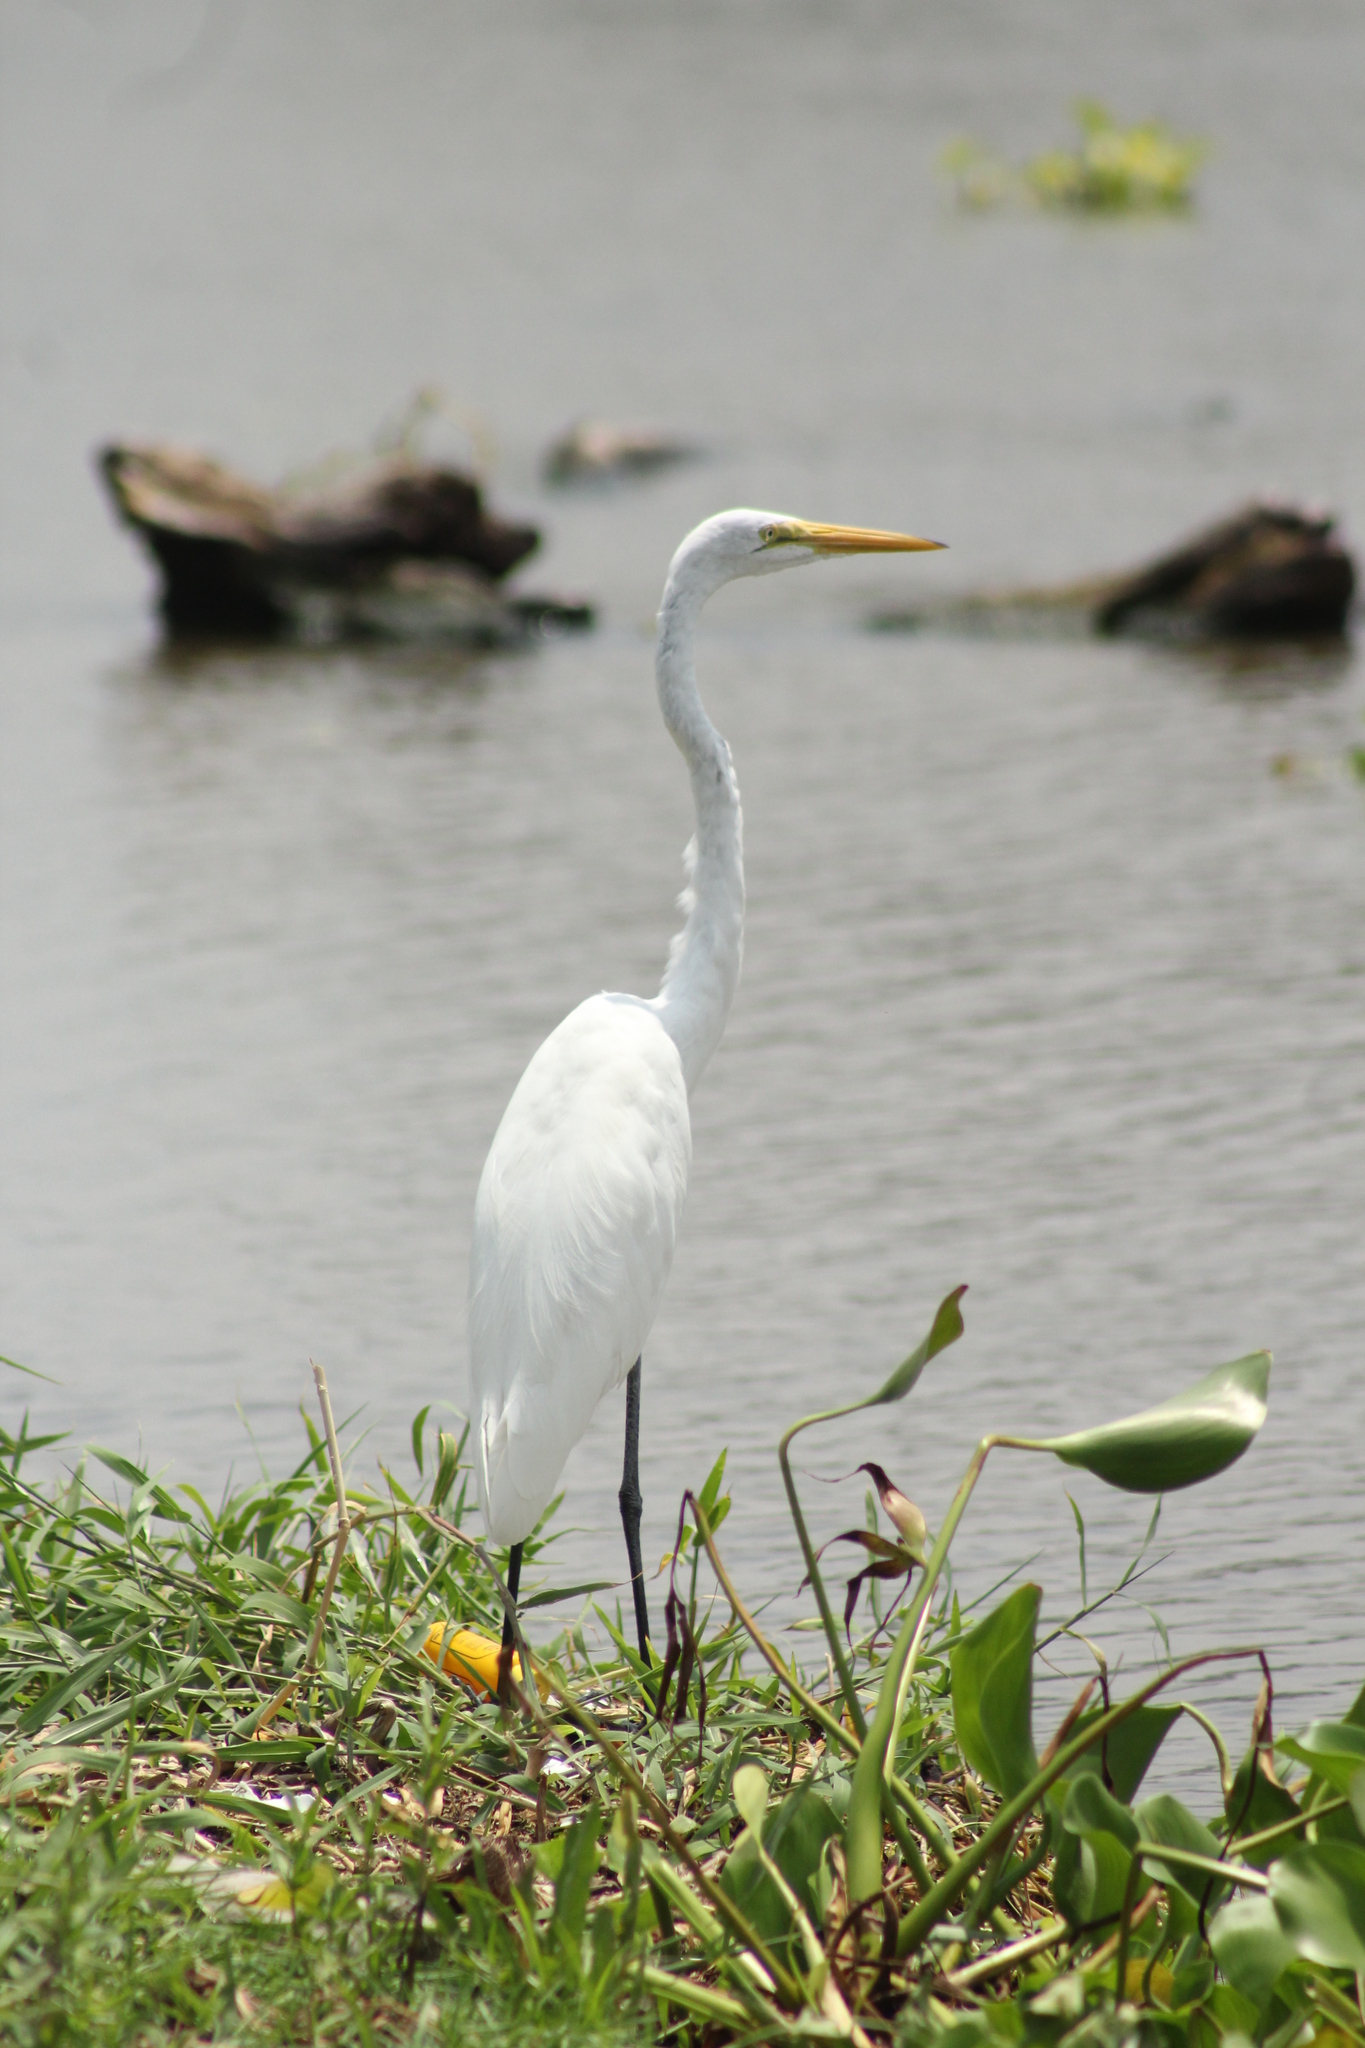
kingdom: Animalia
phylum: Chordata
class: Aves
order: Pelecaniformes
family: Ardeidae
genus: Ardea
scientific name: Ardea alba
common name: Great egret
